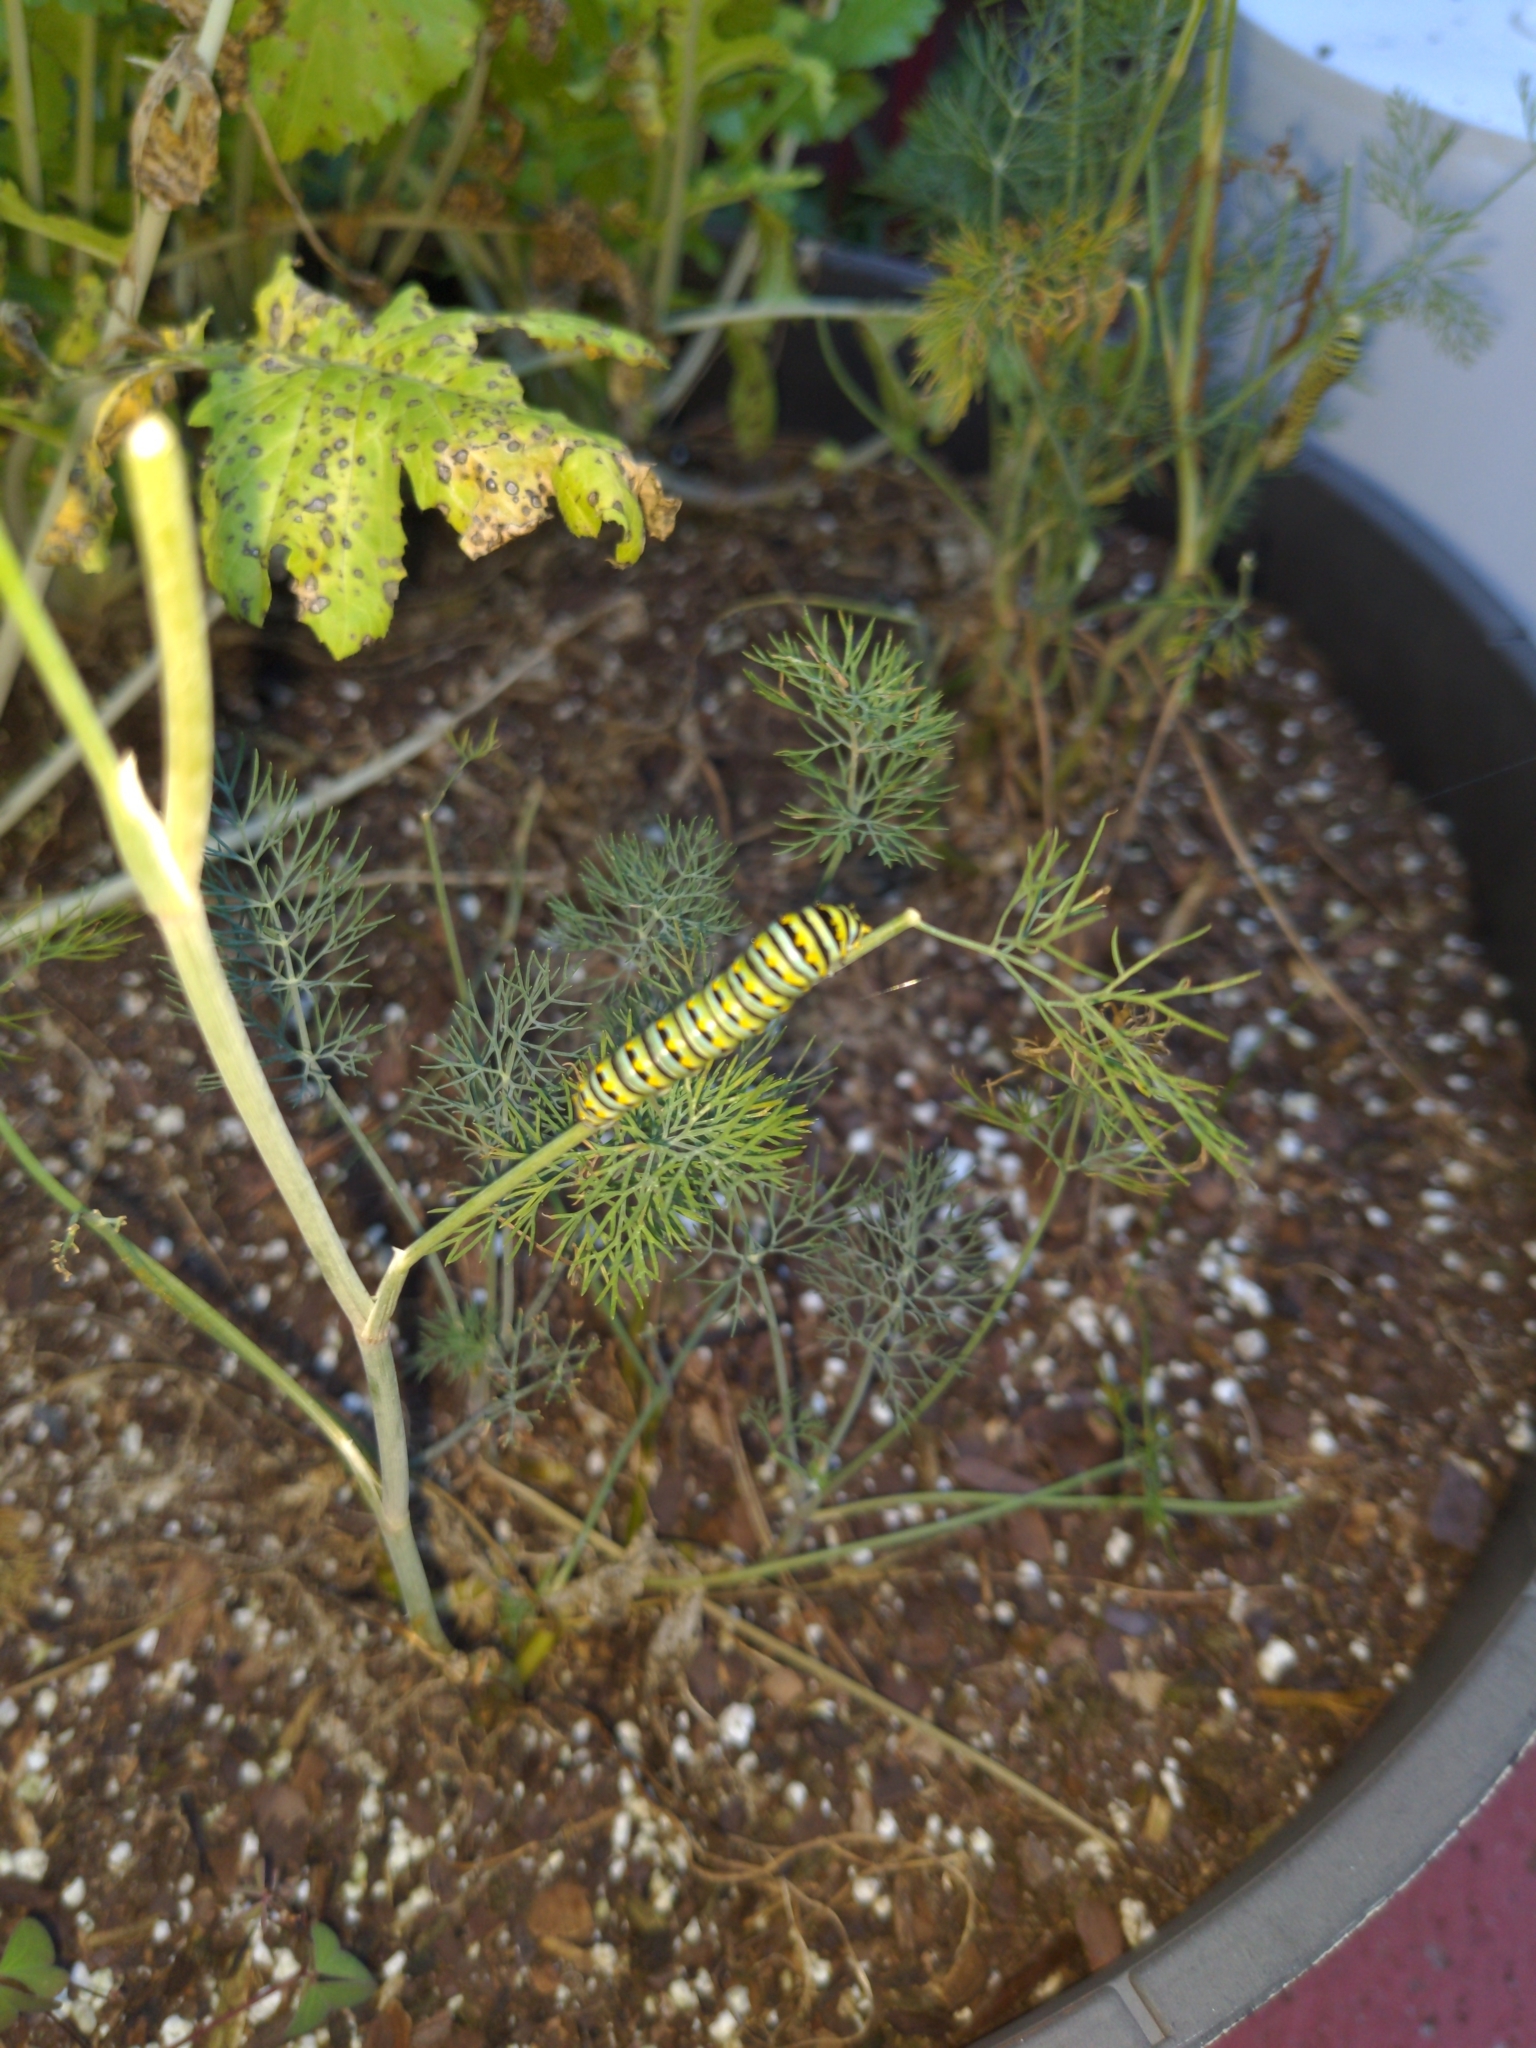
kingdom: Animalia
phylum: Arthropoda
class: Insecta
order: Lepidoptera
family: Papilionidae
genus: Papilio
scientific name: Papilio polyxenes
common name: Black swallowtail
